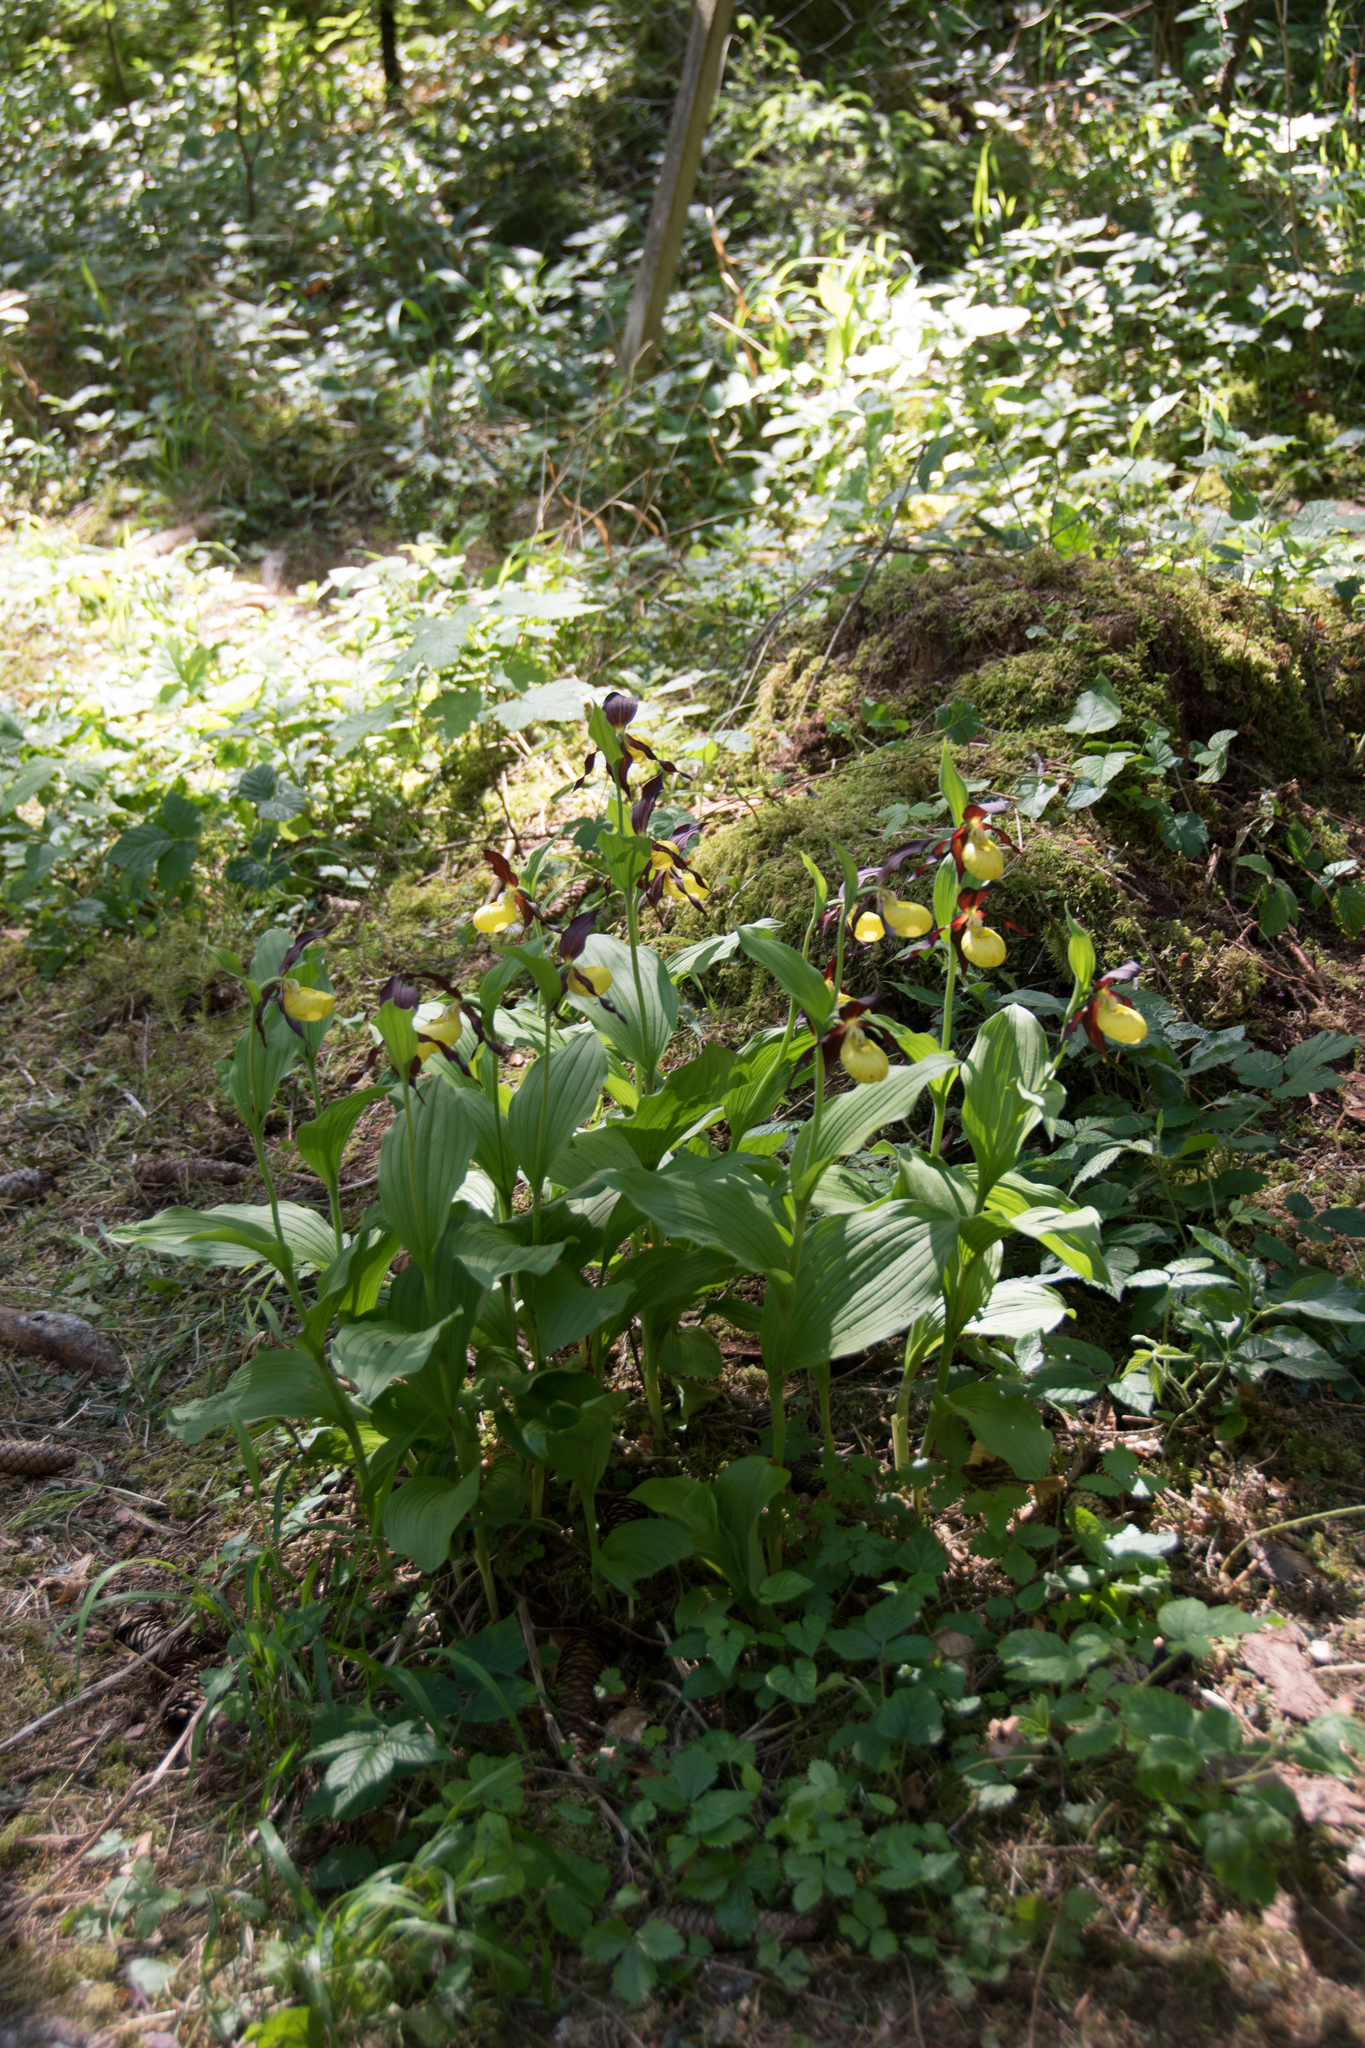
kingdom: Plantae
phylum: Tracheophyta
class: Liliopsida
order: Asparagales
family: Orchidaceae
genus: Cypripedium
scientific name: Cypripedium calceolus
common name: Lady's-slipper
